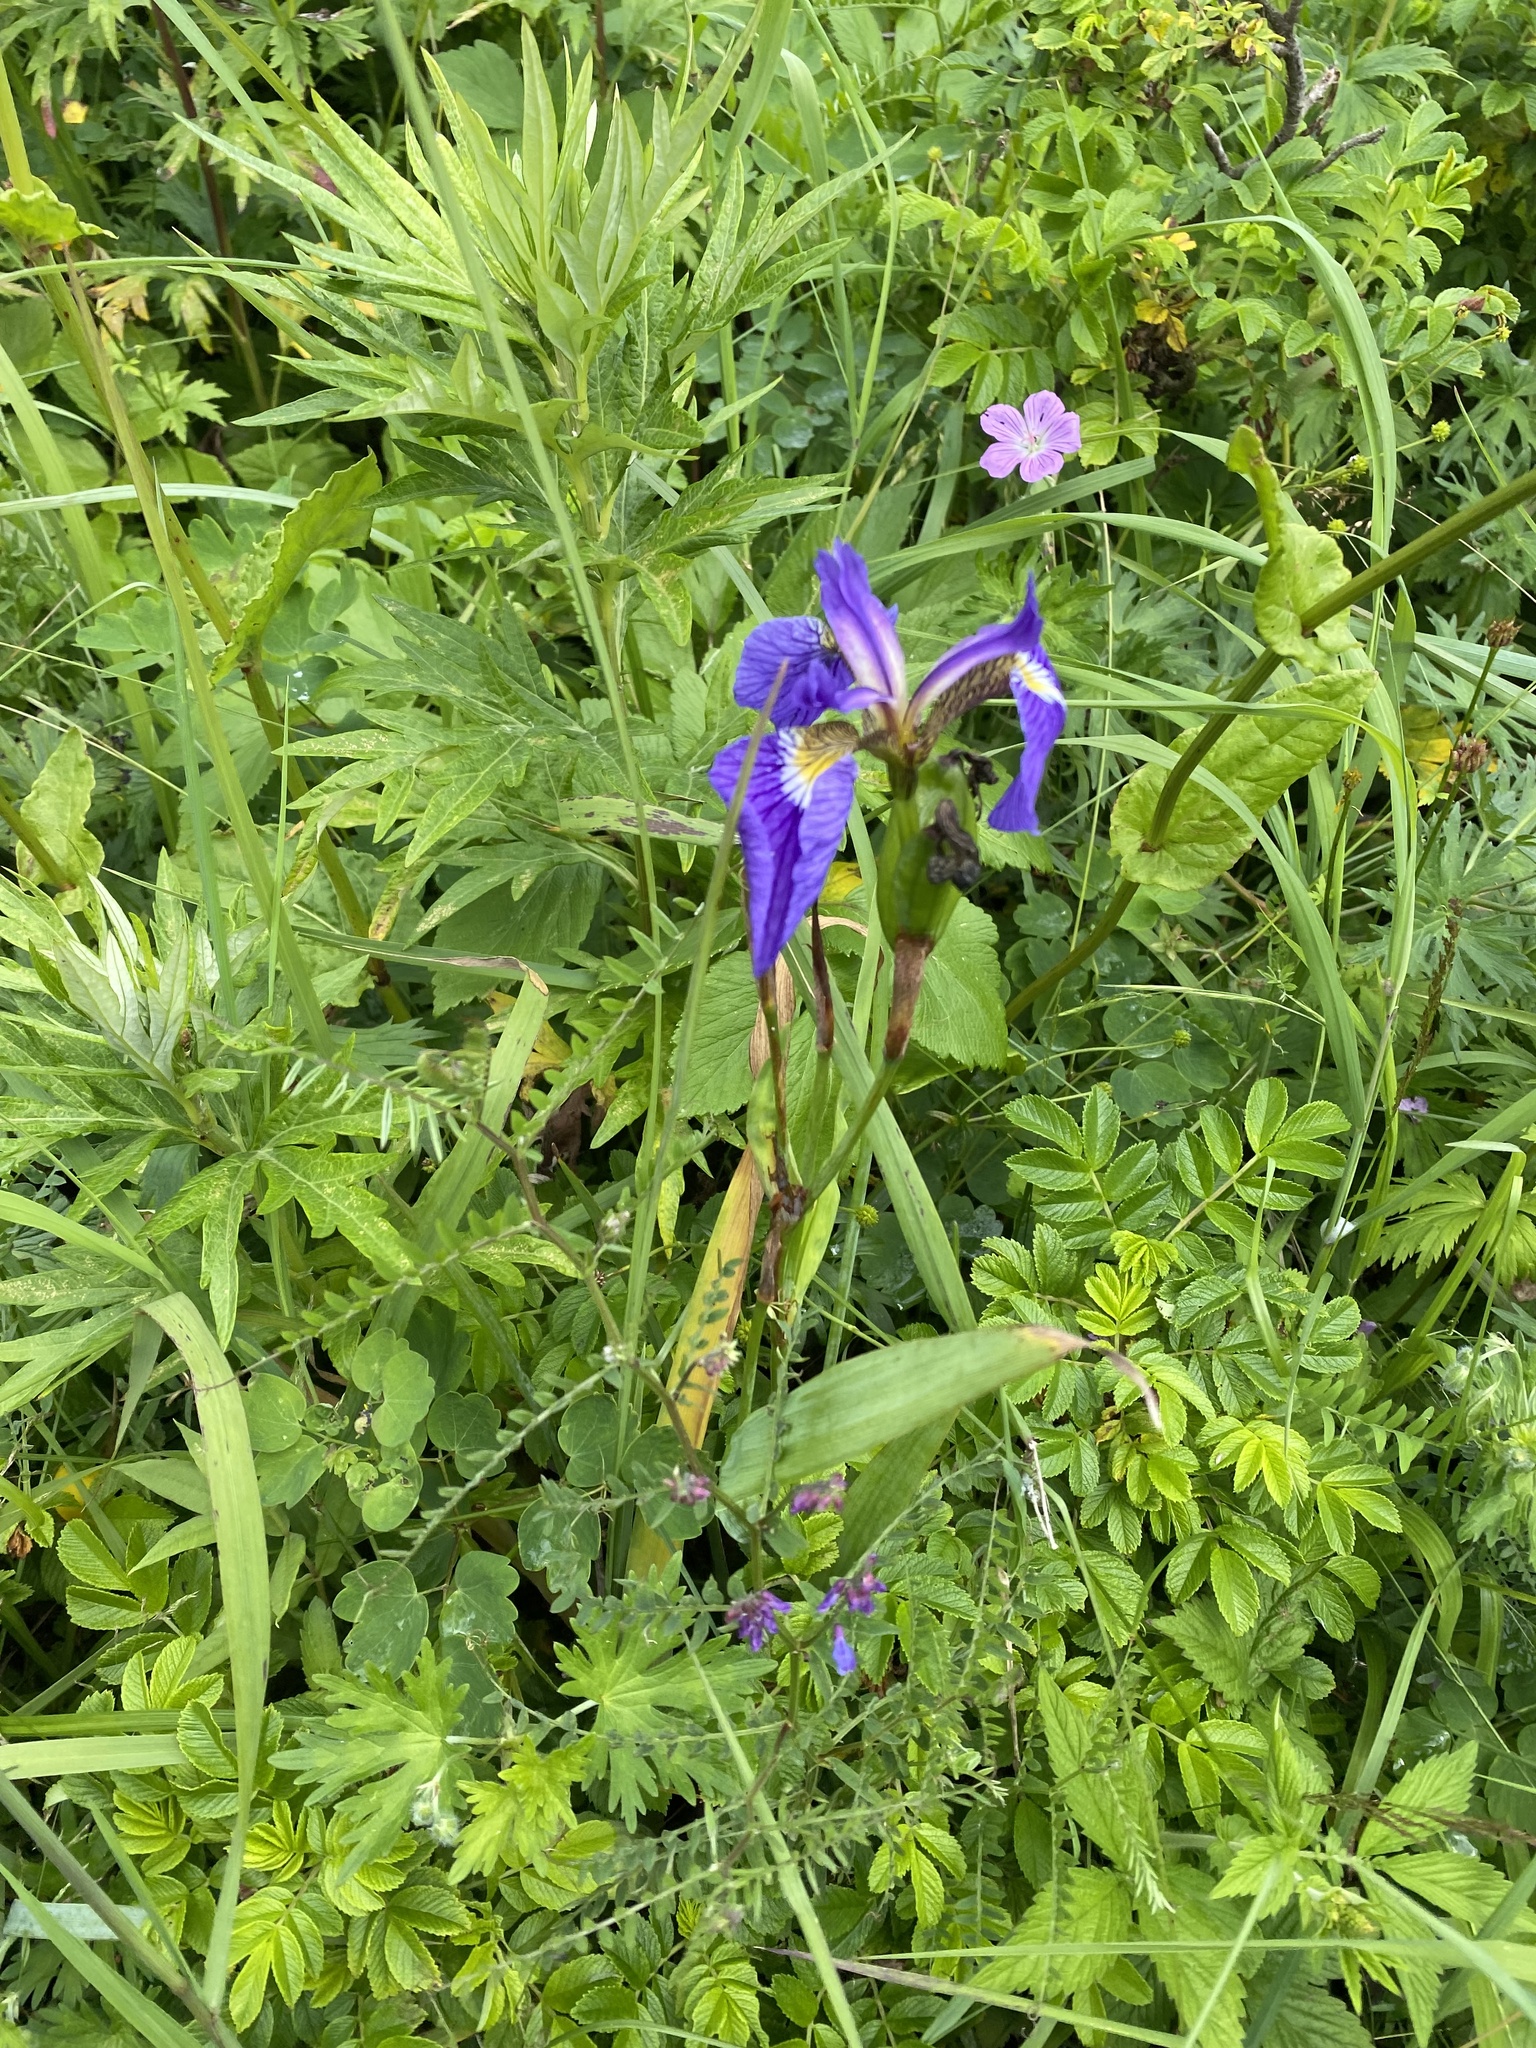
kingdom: Plantae
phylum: Tracheophyta
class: Liliopsida
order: Asparagales
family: Iridaceae
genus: Iris
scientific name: Iris setosa
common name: Arctic blue flag
